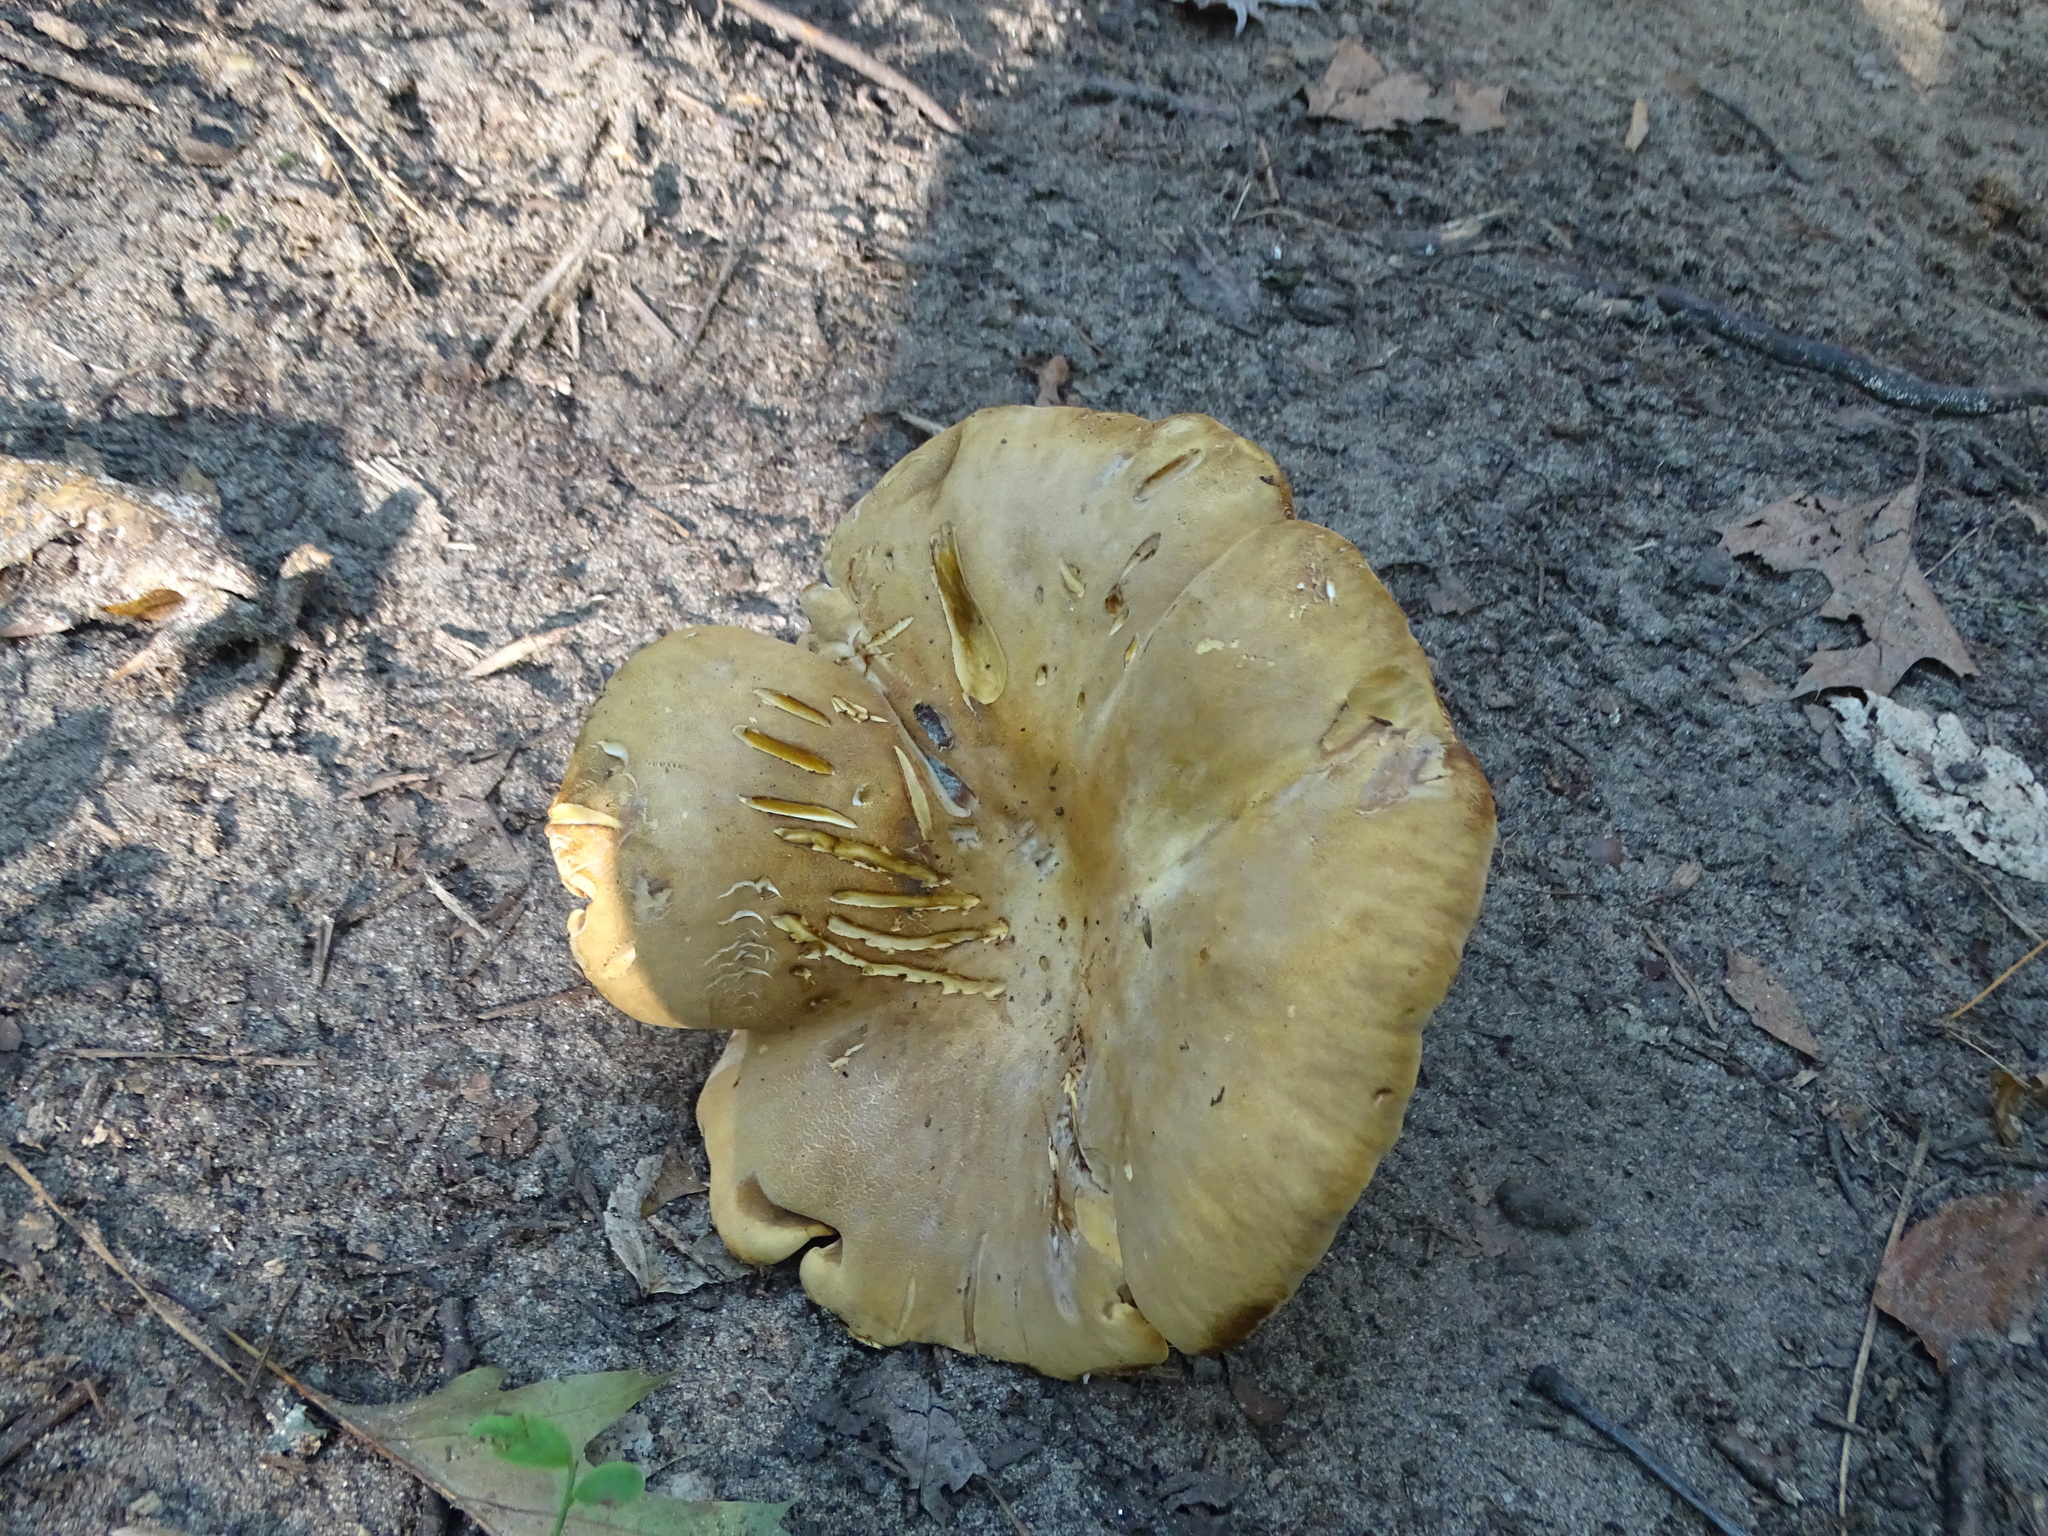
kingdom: Fungi
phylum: Basidiomycota
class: Agaricomycetes
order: Boletales
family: Tapinellaceae
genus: Tapinella
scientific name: Tapinella atrotomentosa
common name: Velvet rollrim
